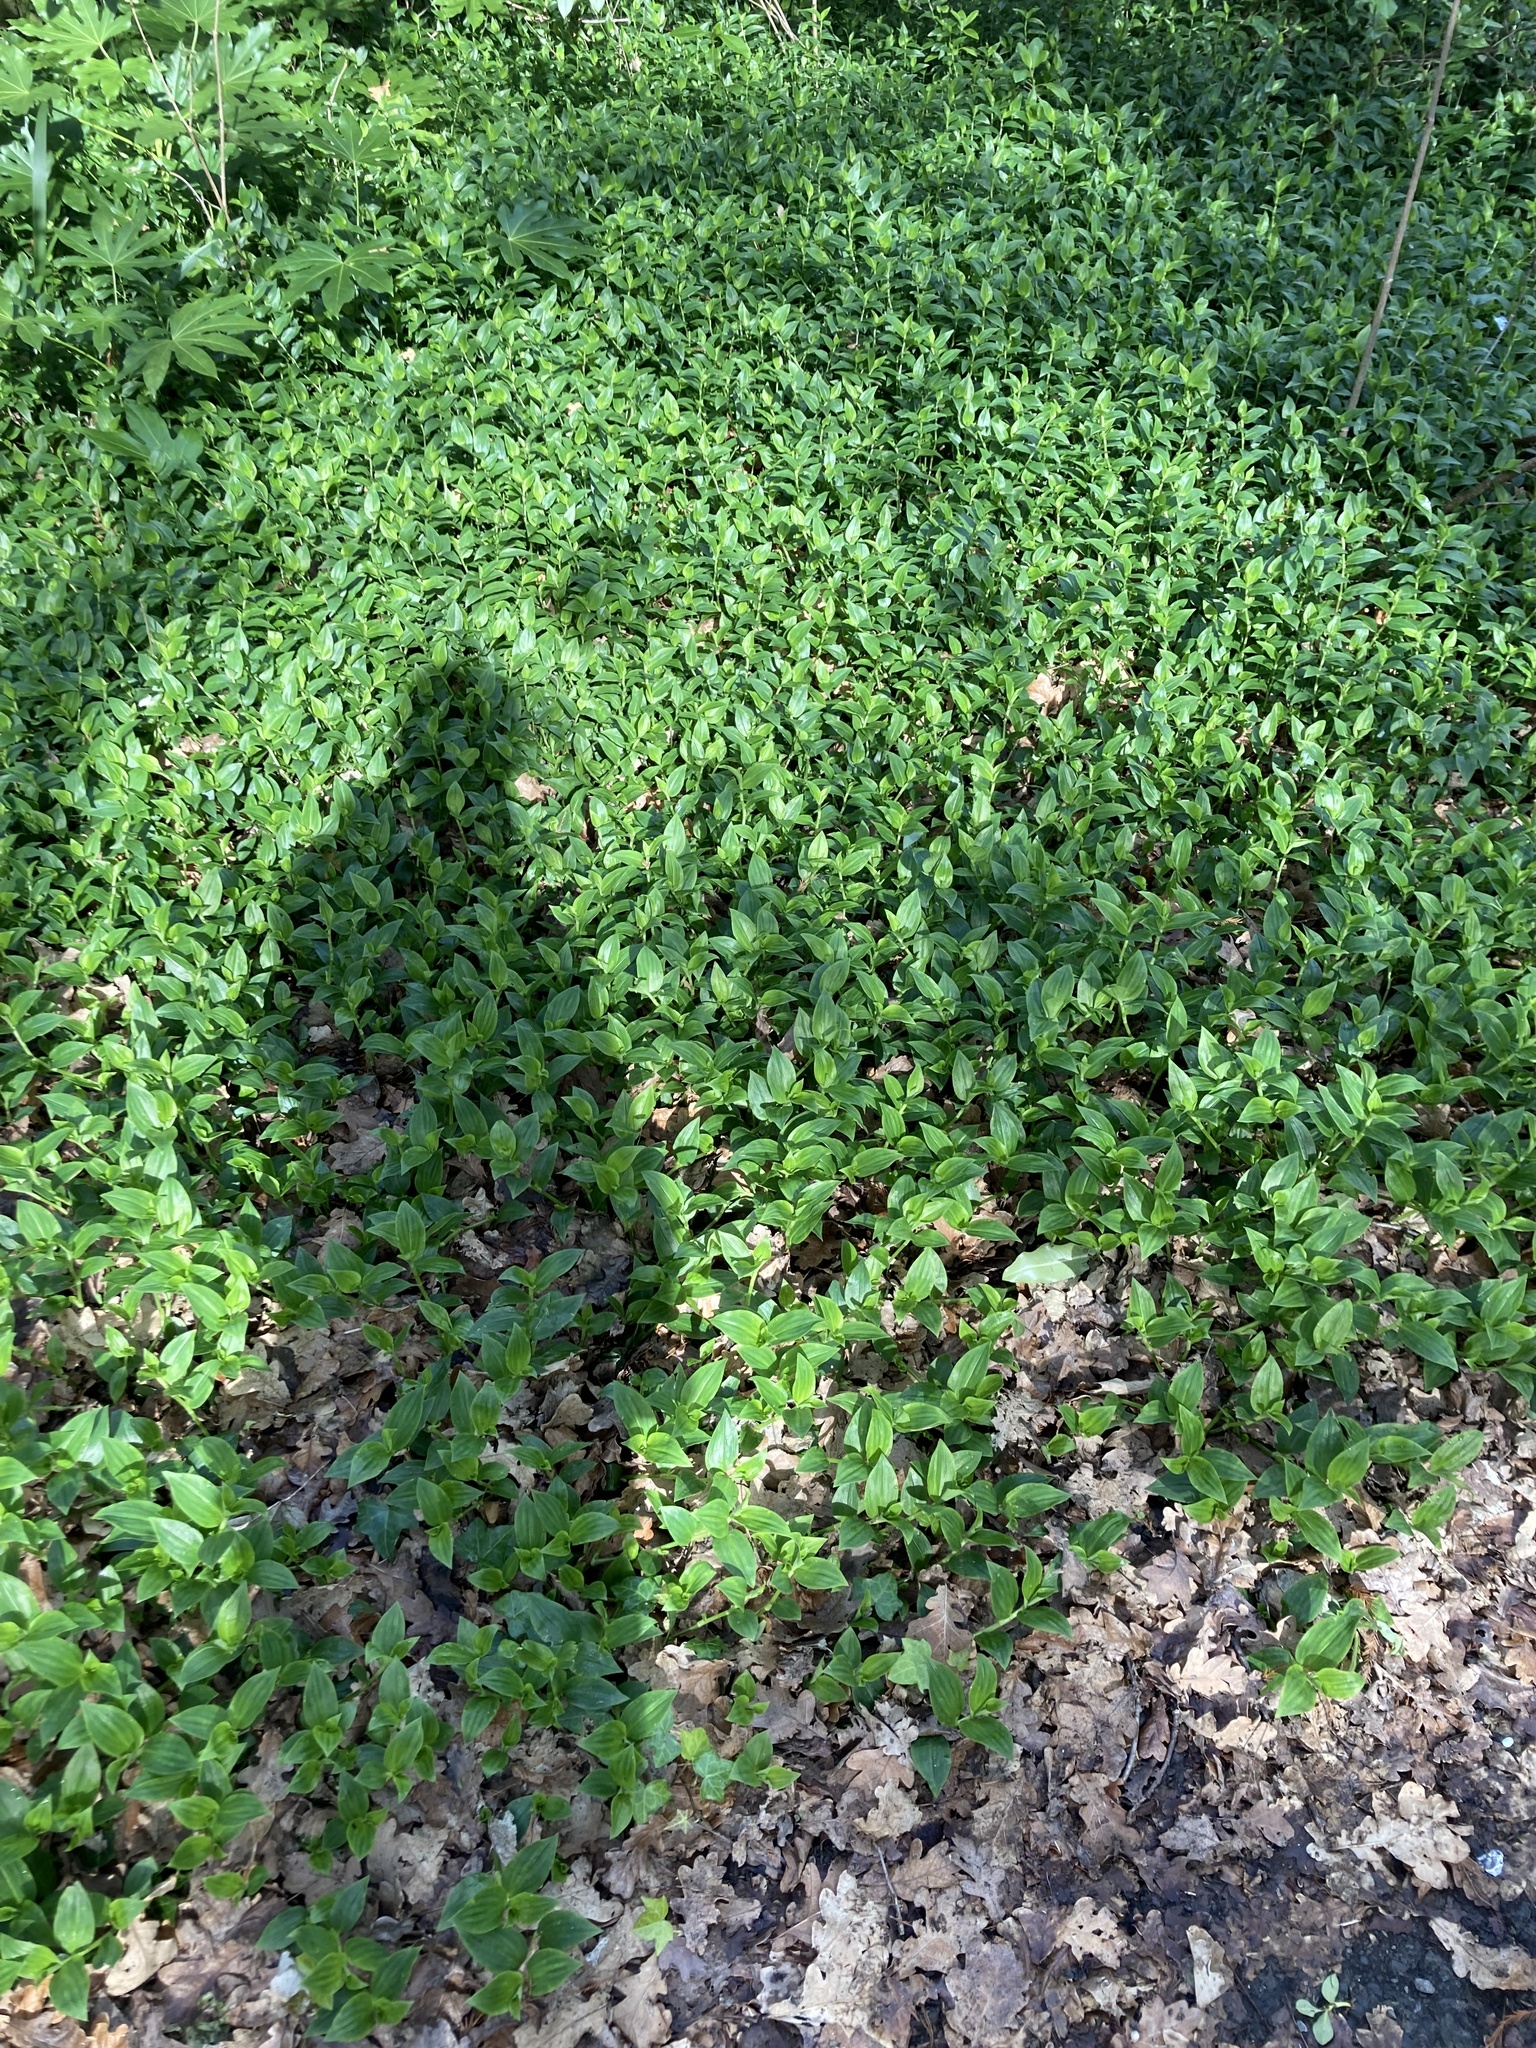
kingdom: Plantae
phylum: Tracheophyta
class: Liliopsida
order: Commelinales
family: Commelinaceae
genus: Tradescantia
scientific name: Tradescantia fluminensis
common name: Wandering-jew
